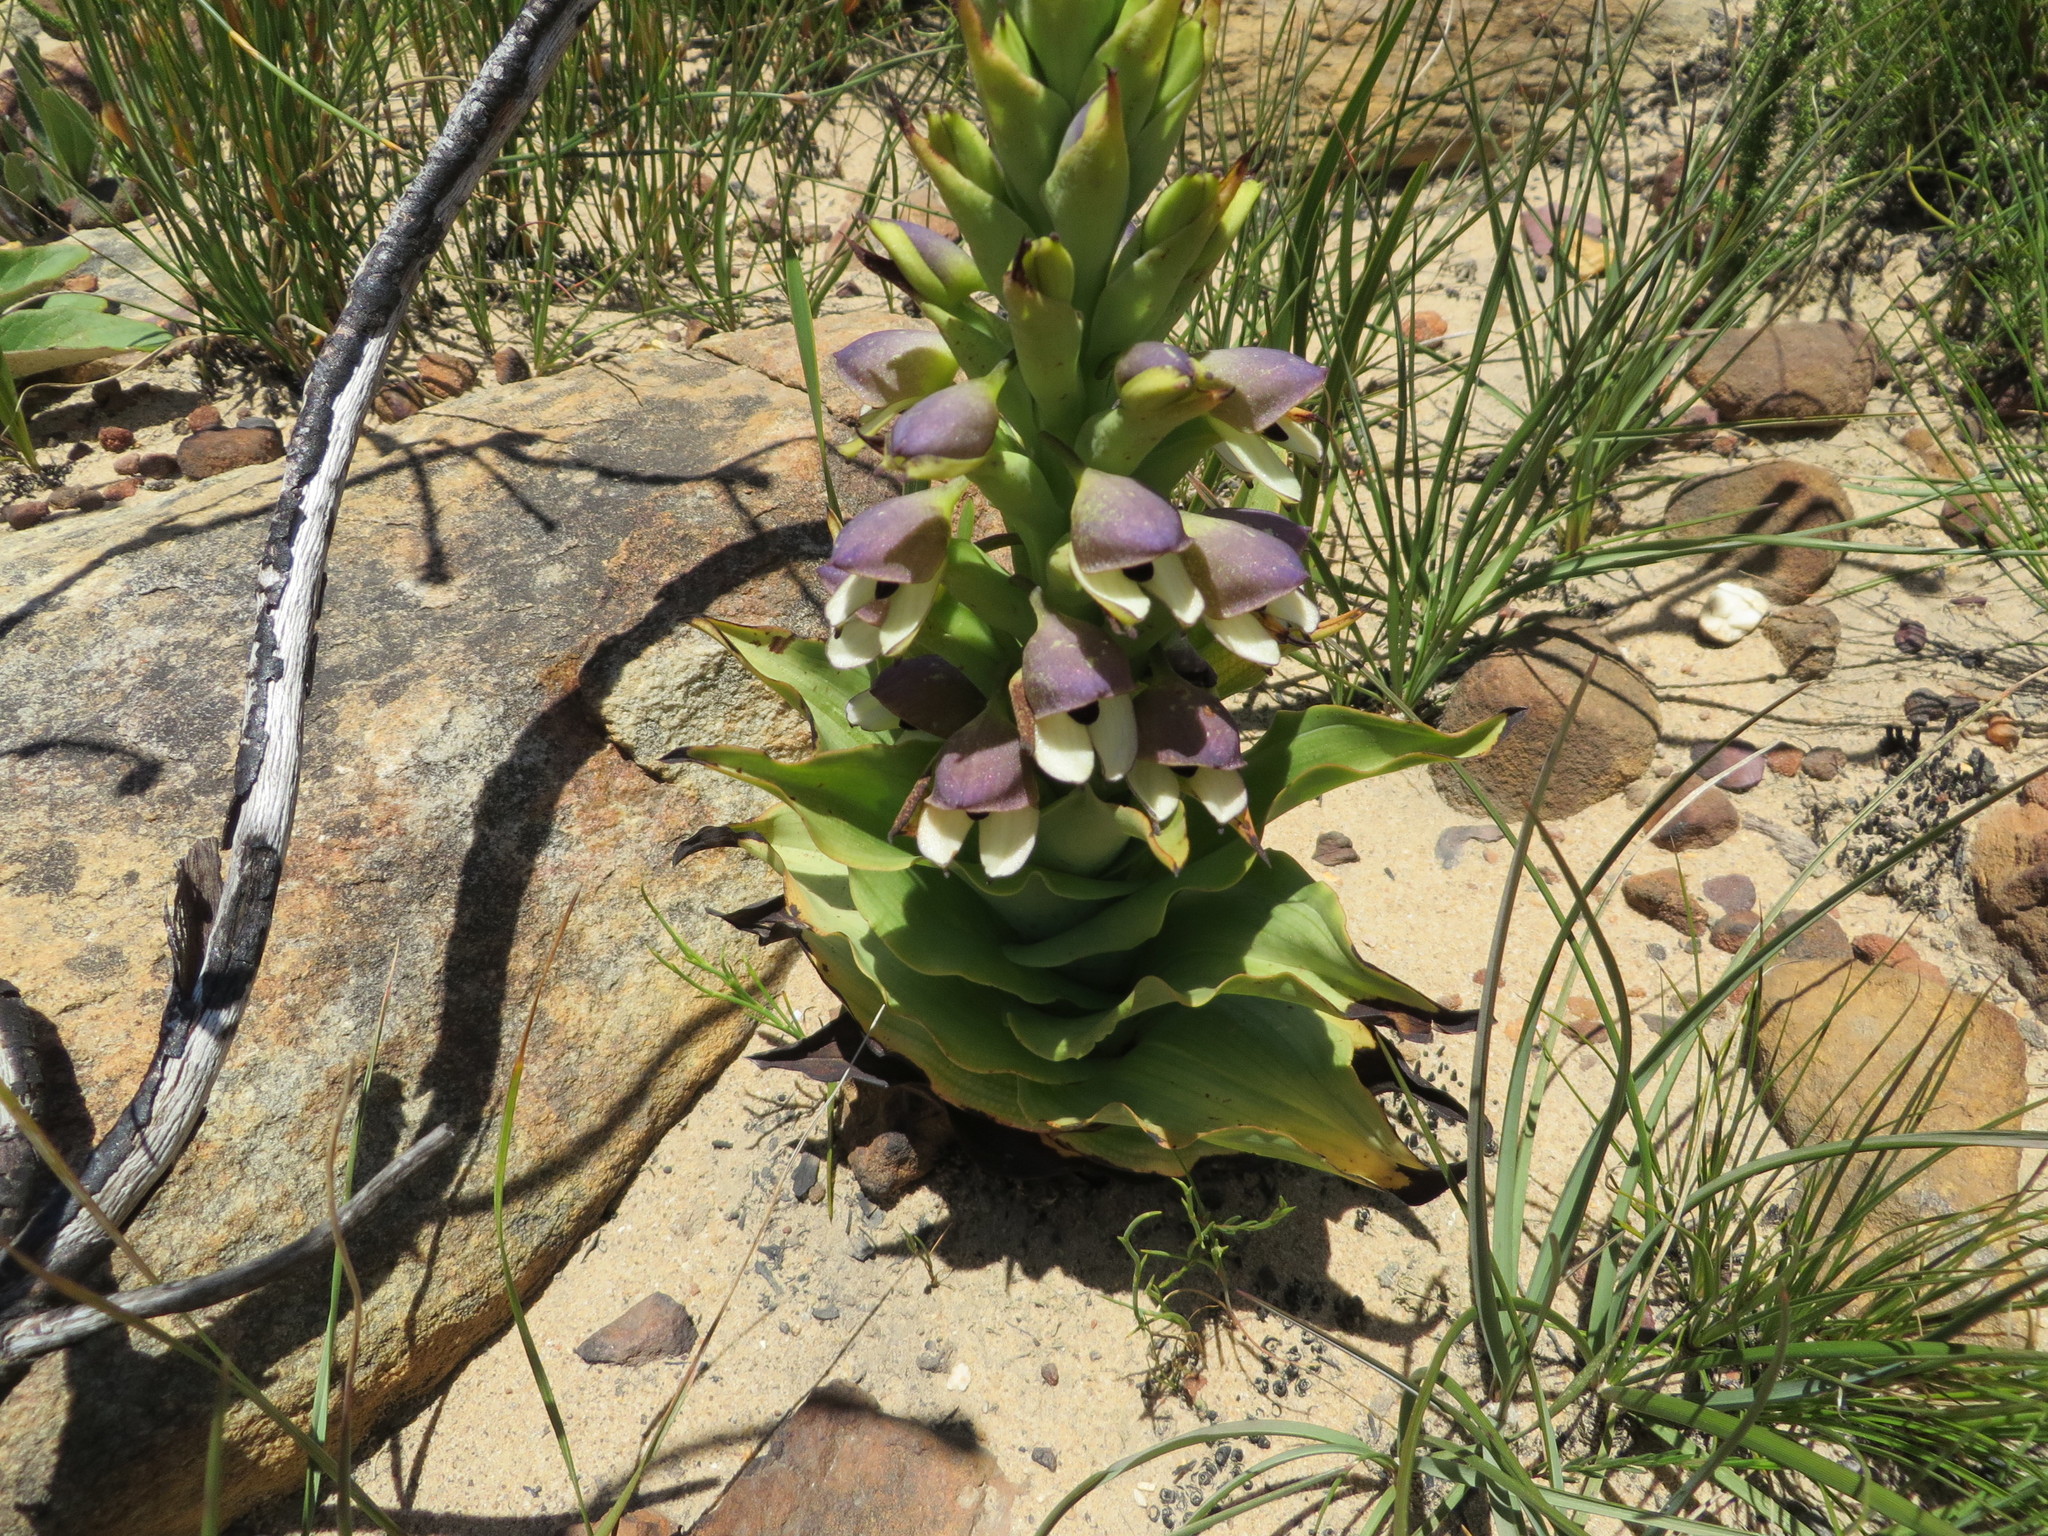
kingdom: Plantae
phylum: Tracheophyta
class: Liliopsida
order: Asparagales
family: Orchidaceae
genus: Disa
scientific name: Disa cornuta
